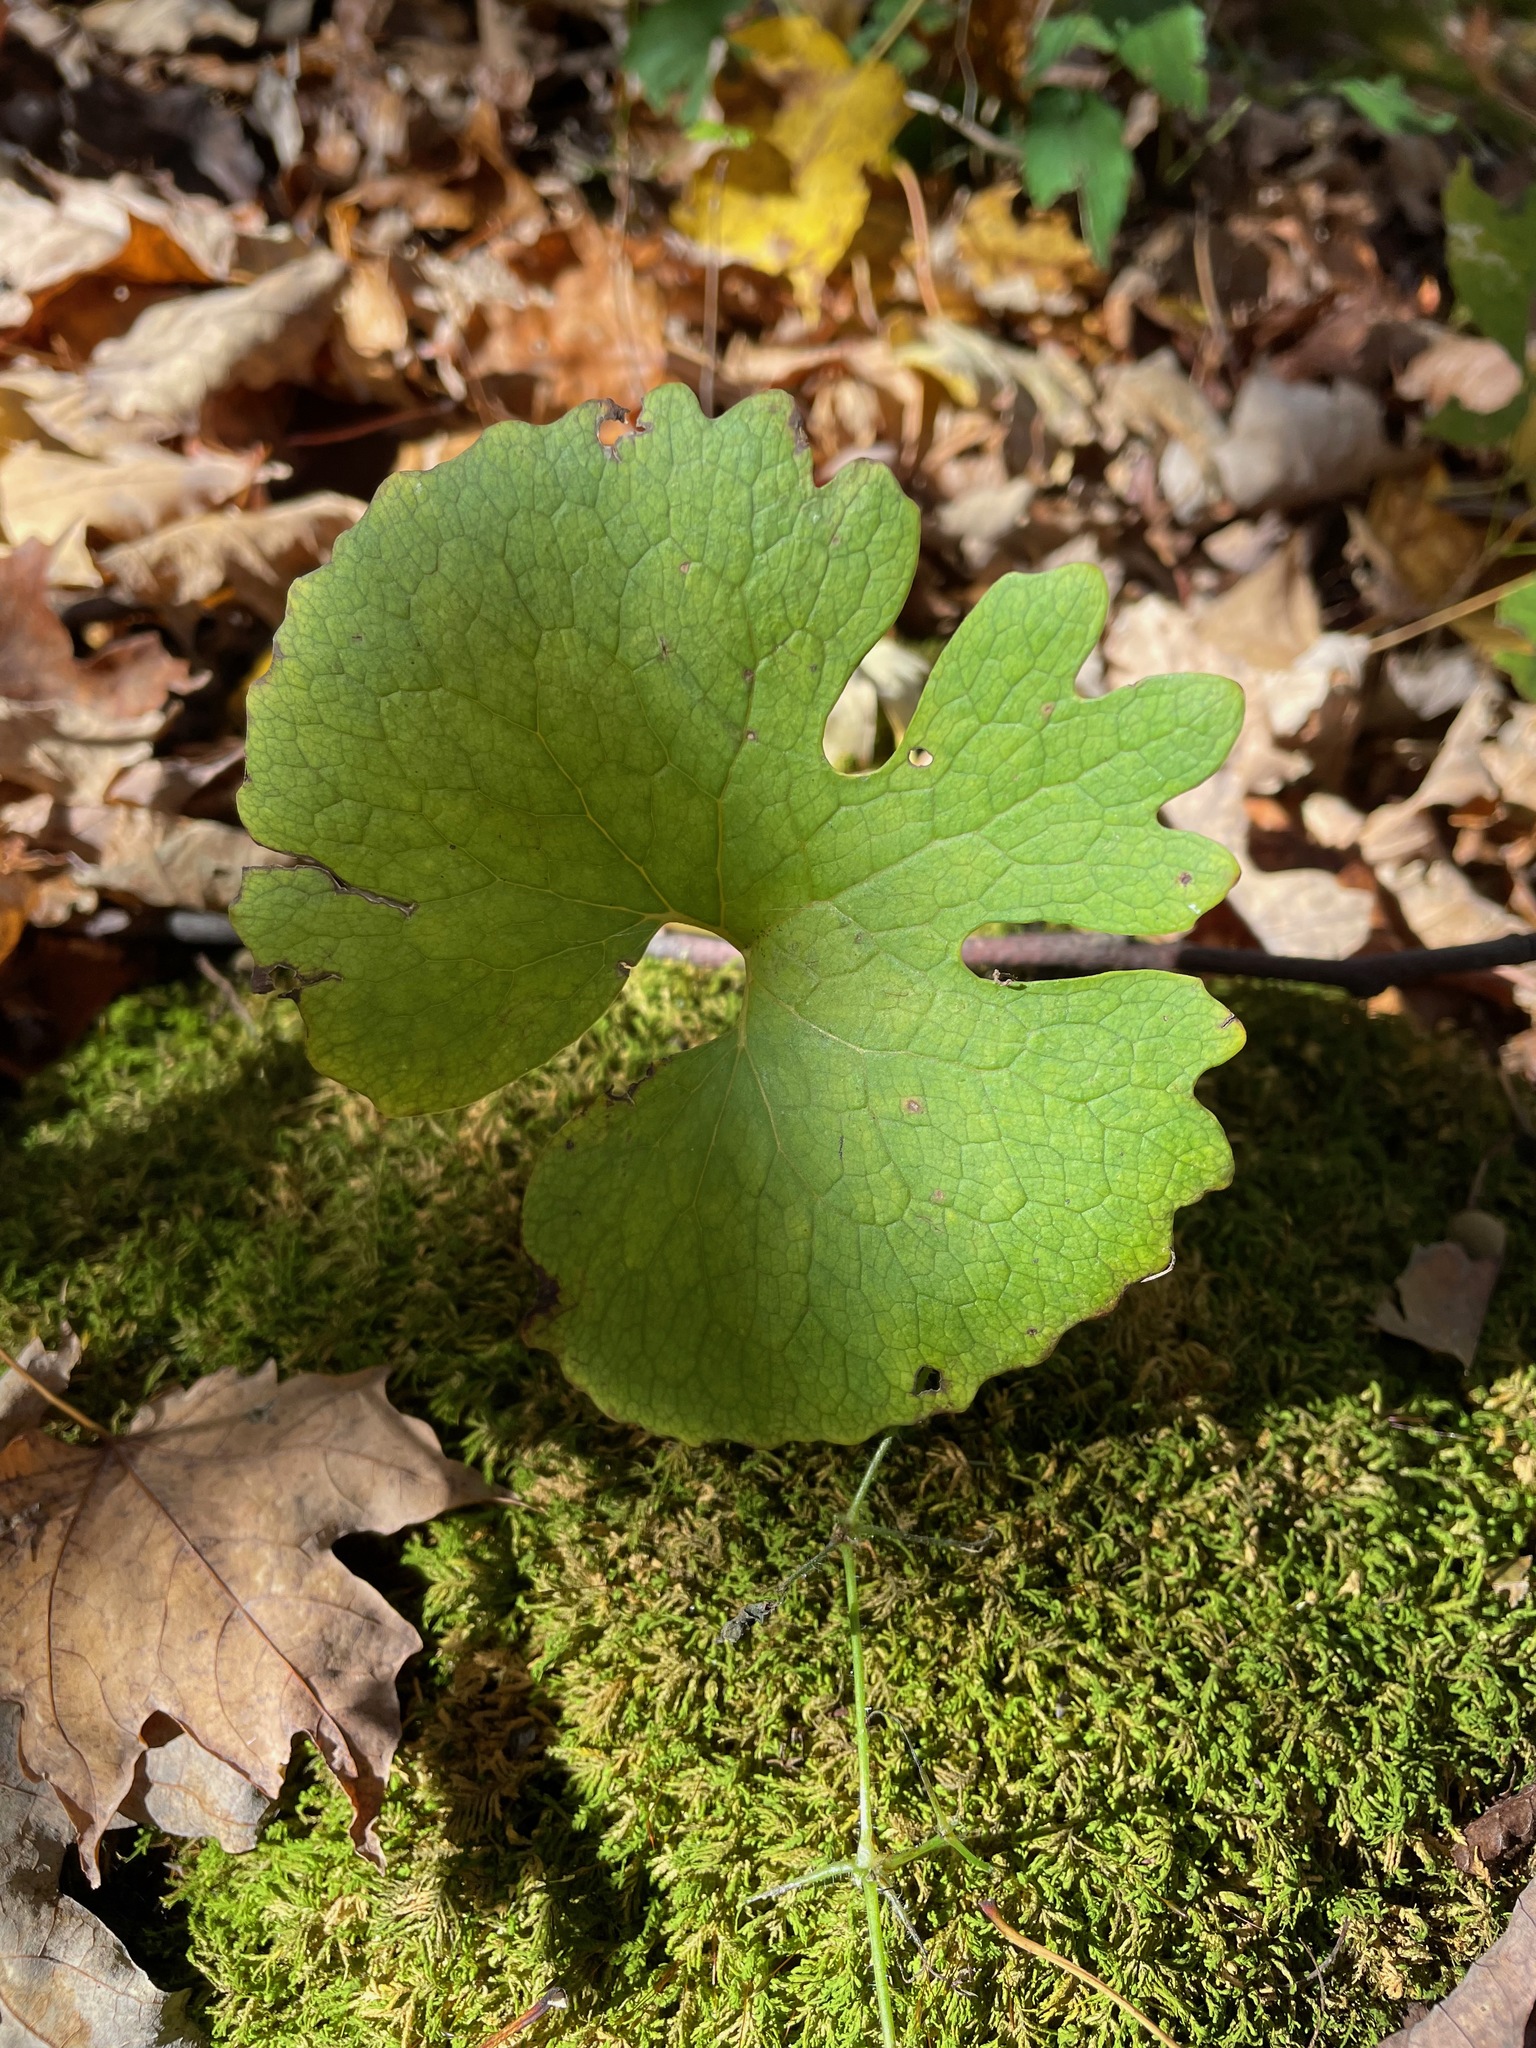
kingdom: Plantae
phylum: Tracheophyta
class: Magnoliopsida
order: Ranunculales
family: Papaveraceae
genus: Sanguinaria
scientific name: Sanguinaria canadensis
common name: Bloodroot
